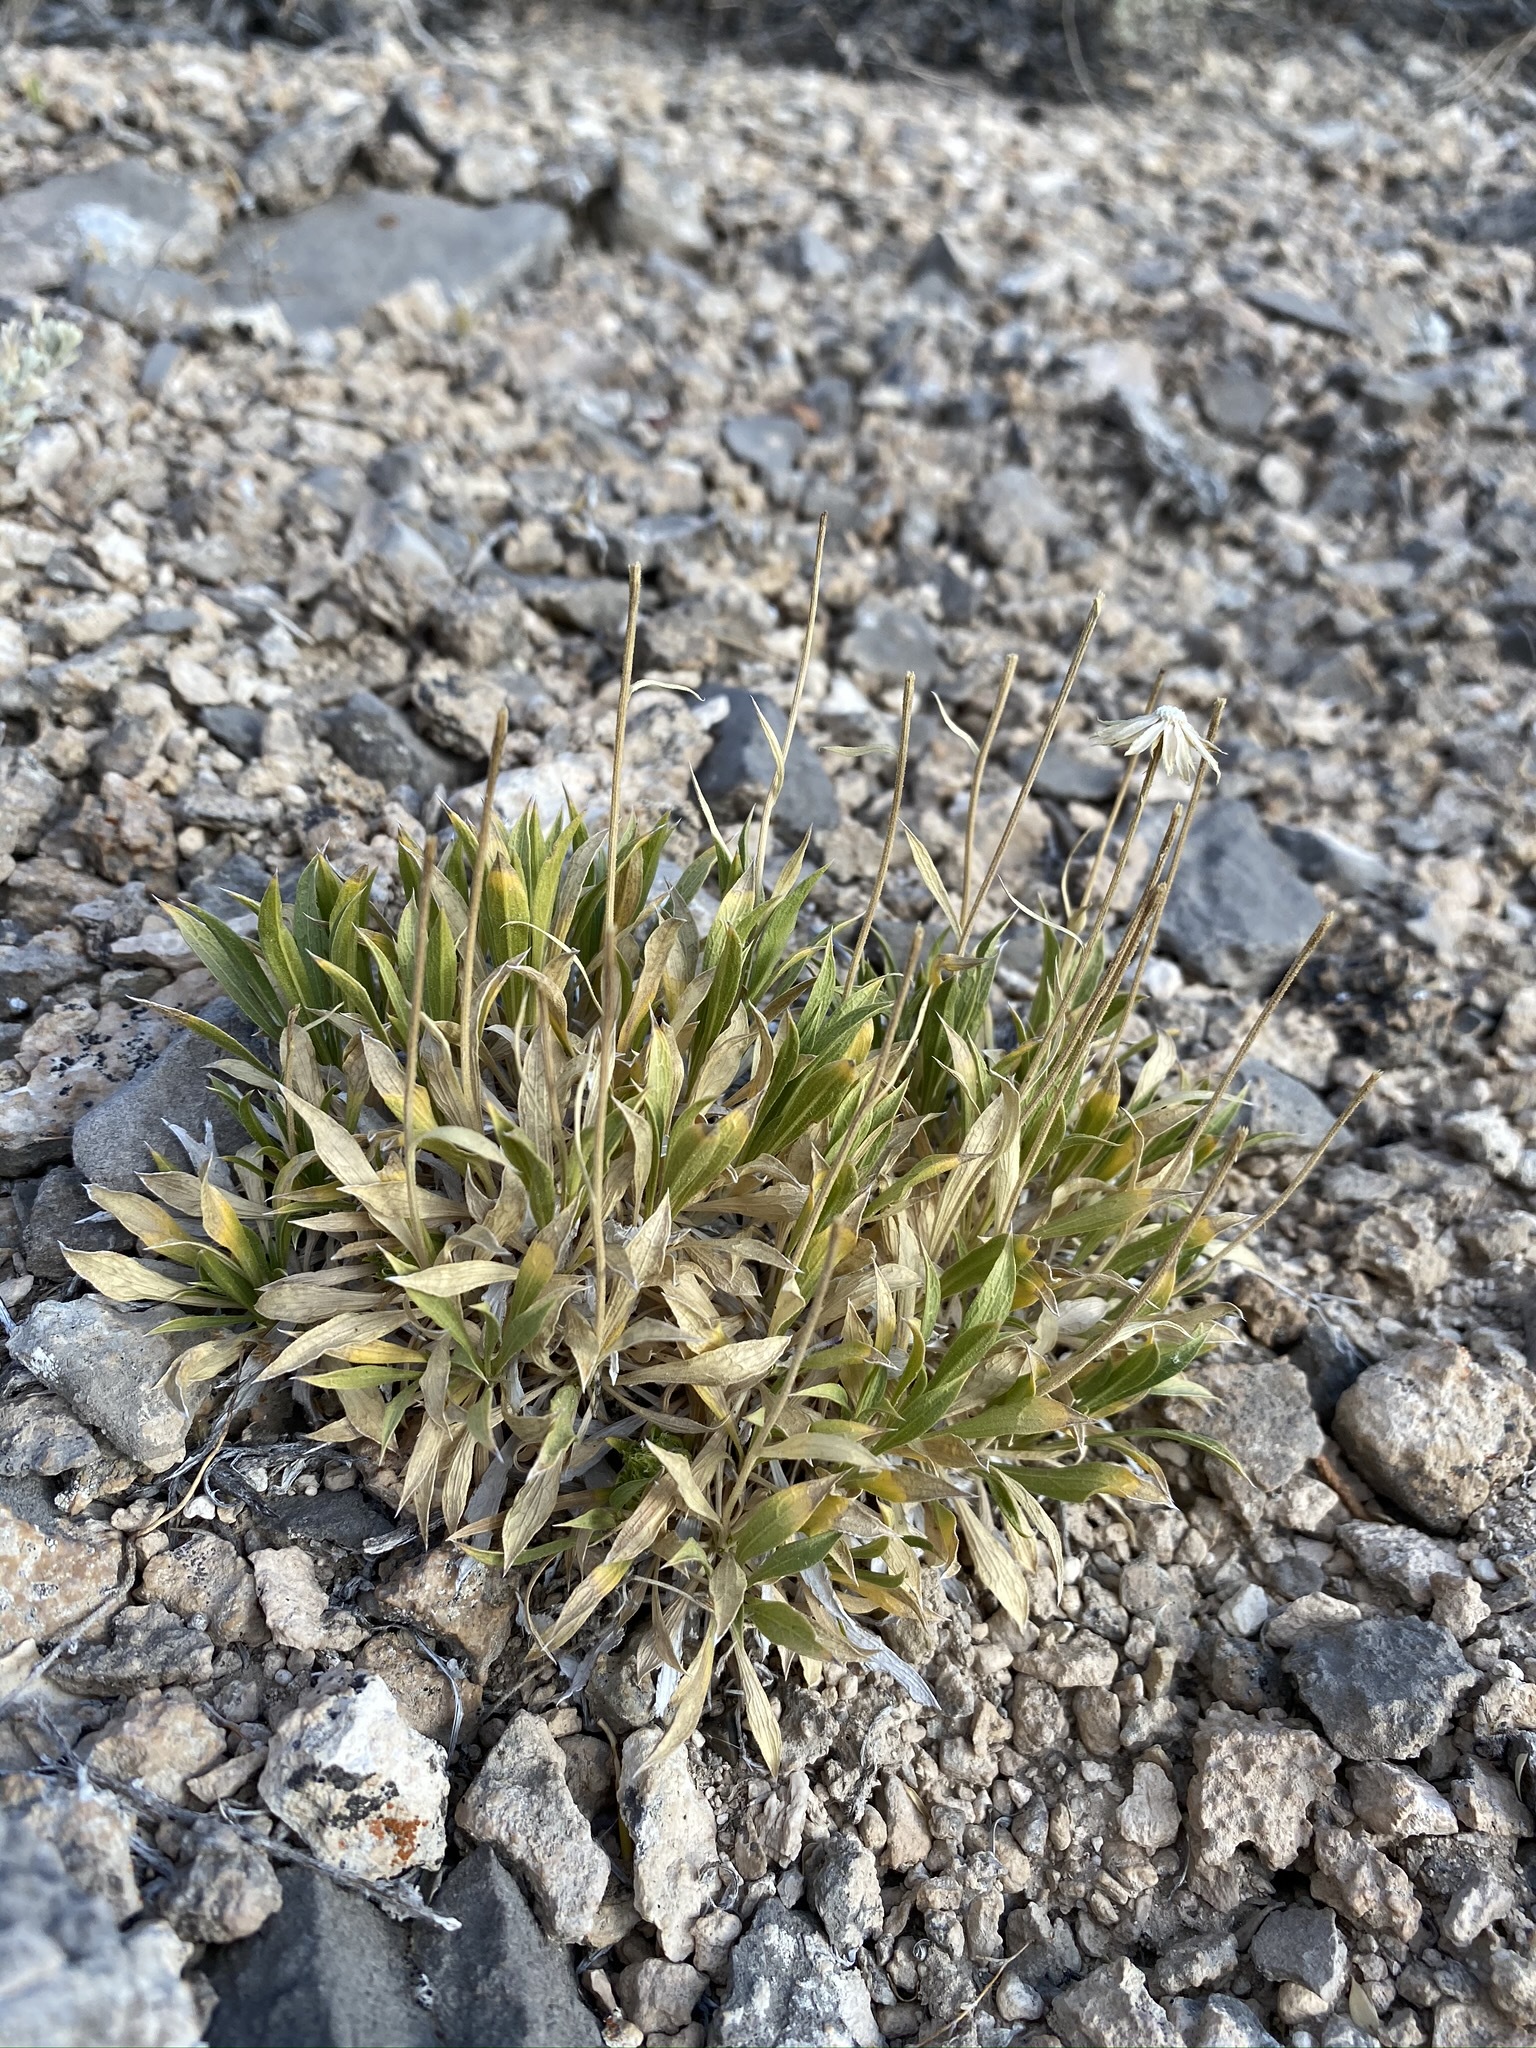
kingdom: Plantae
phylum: Tracheophyta
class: Magnoliopsida
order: Asterales
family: Asteraceae
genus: Stenotus
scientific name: Stenotus acaulis
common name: Stemless goldenweed
